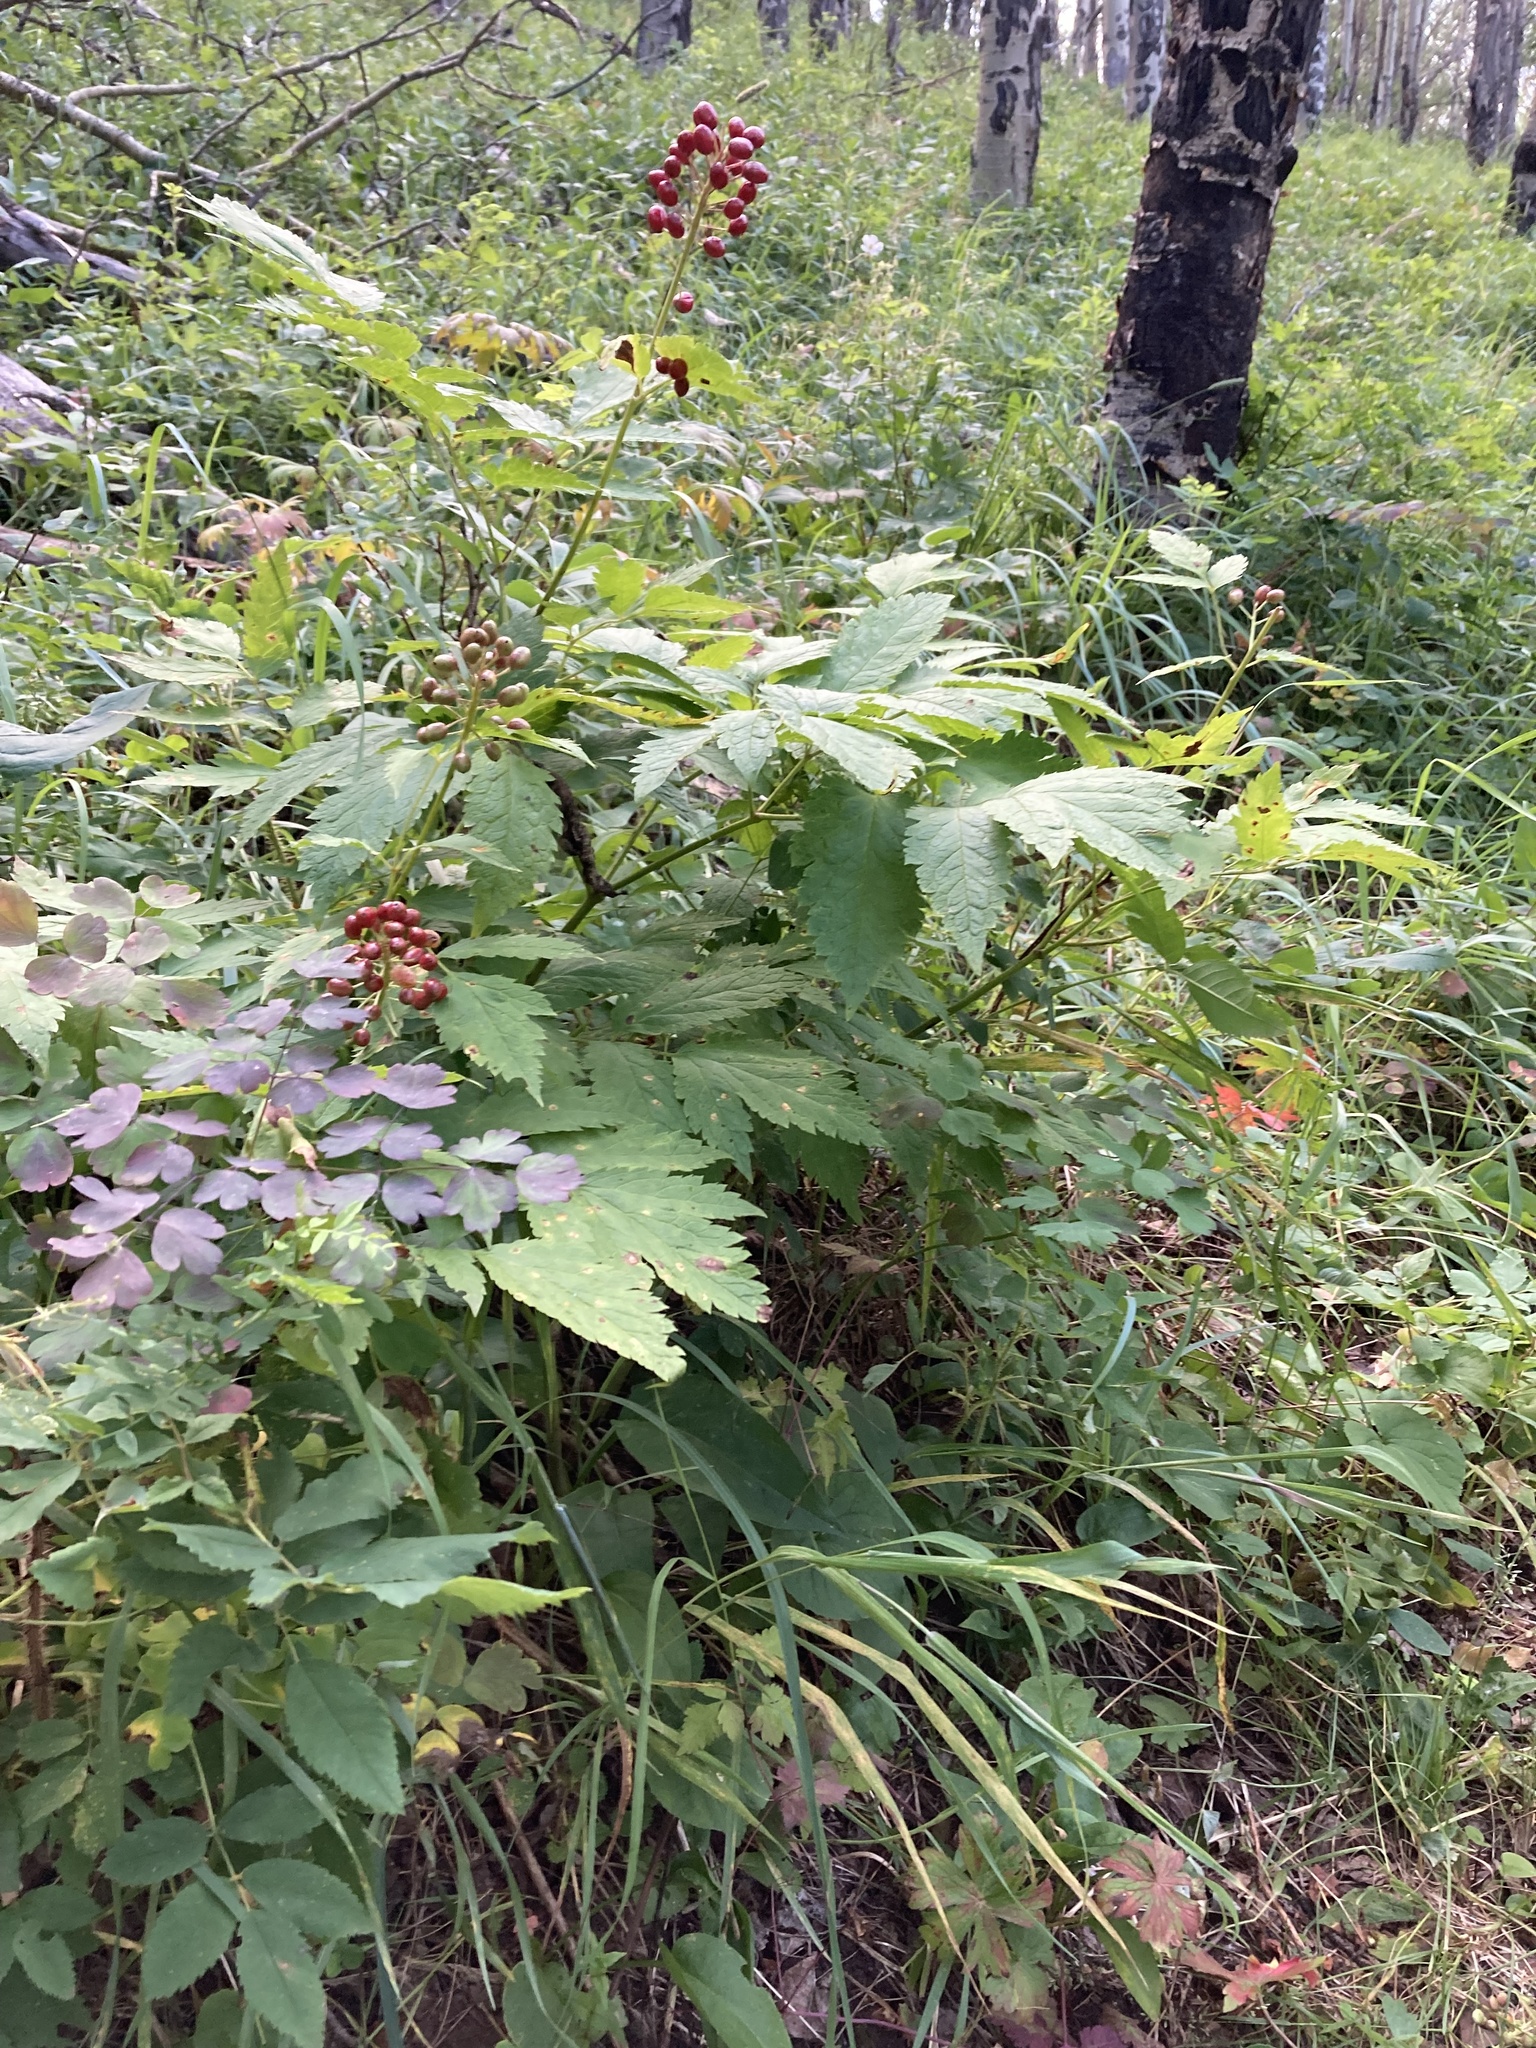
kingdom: Plantae
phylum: Tracheophyta
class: Magnoliopsida
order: Ranunculales
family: Ranunculaceae
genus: Actaea
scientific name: Actaea rubra
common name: Red baneberry
